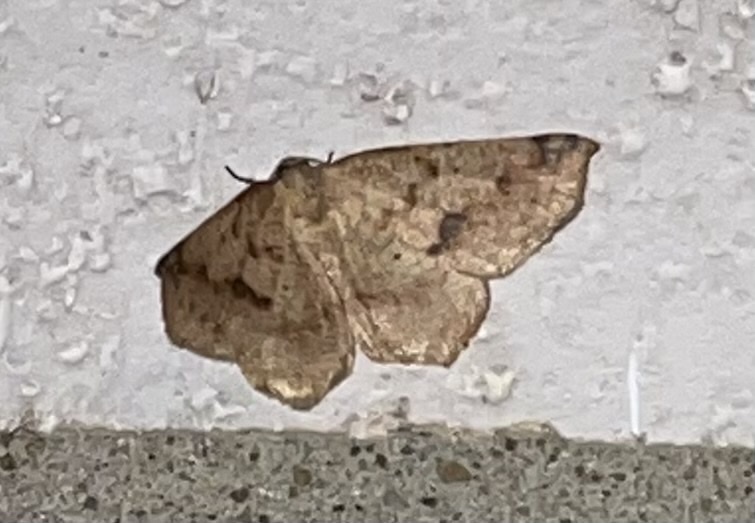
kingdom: Animalia
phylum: Arthropoda
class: Insecta
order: Lepidoptera
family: Geometridae
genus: Antepione
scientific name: Antepione thisoaria
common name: Variable antipione
